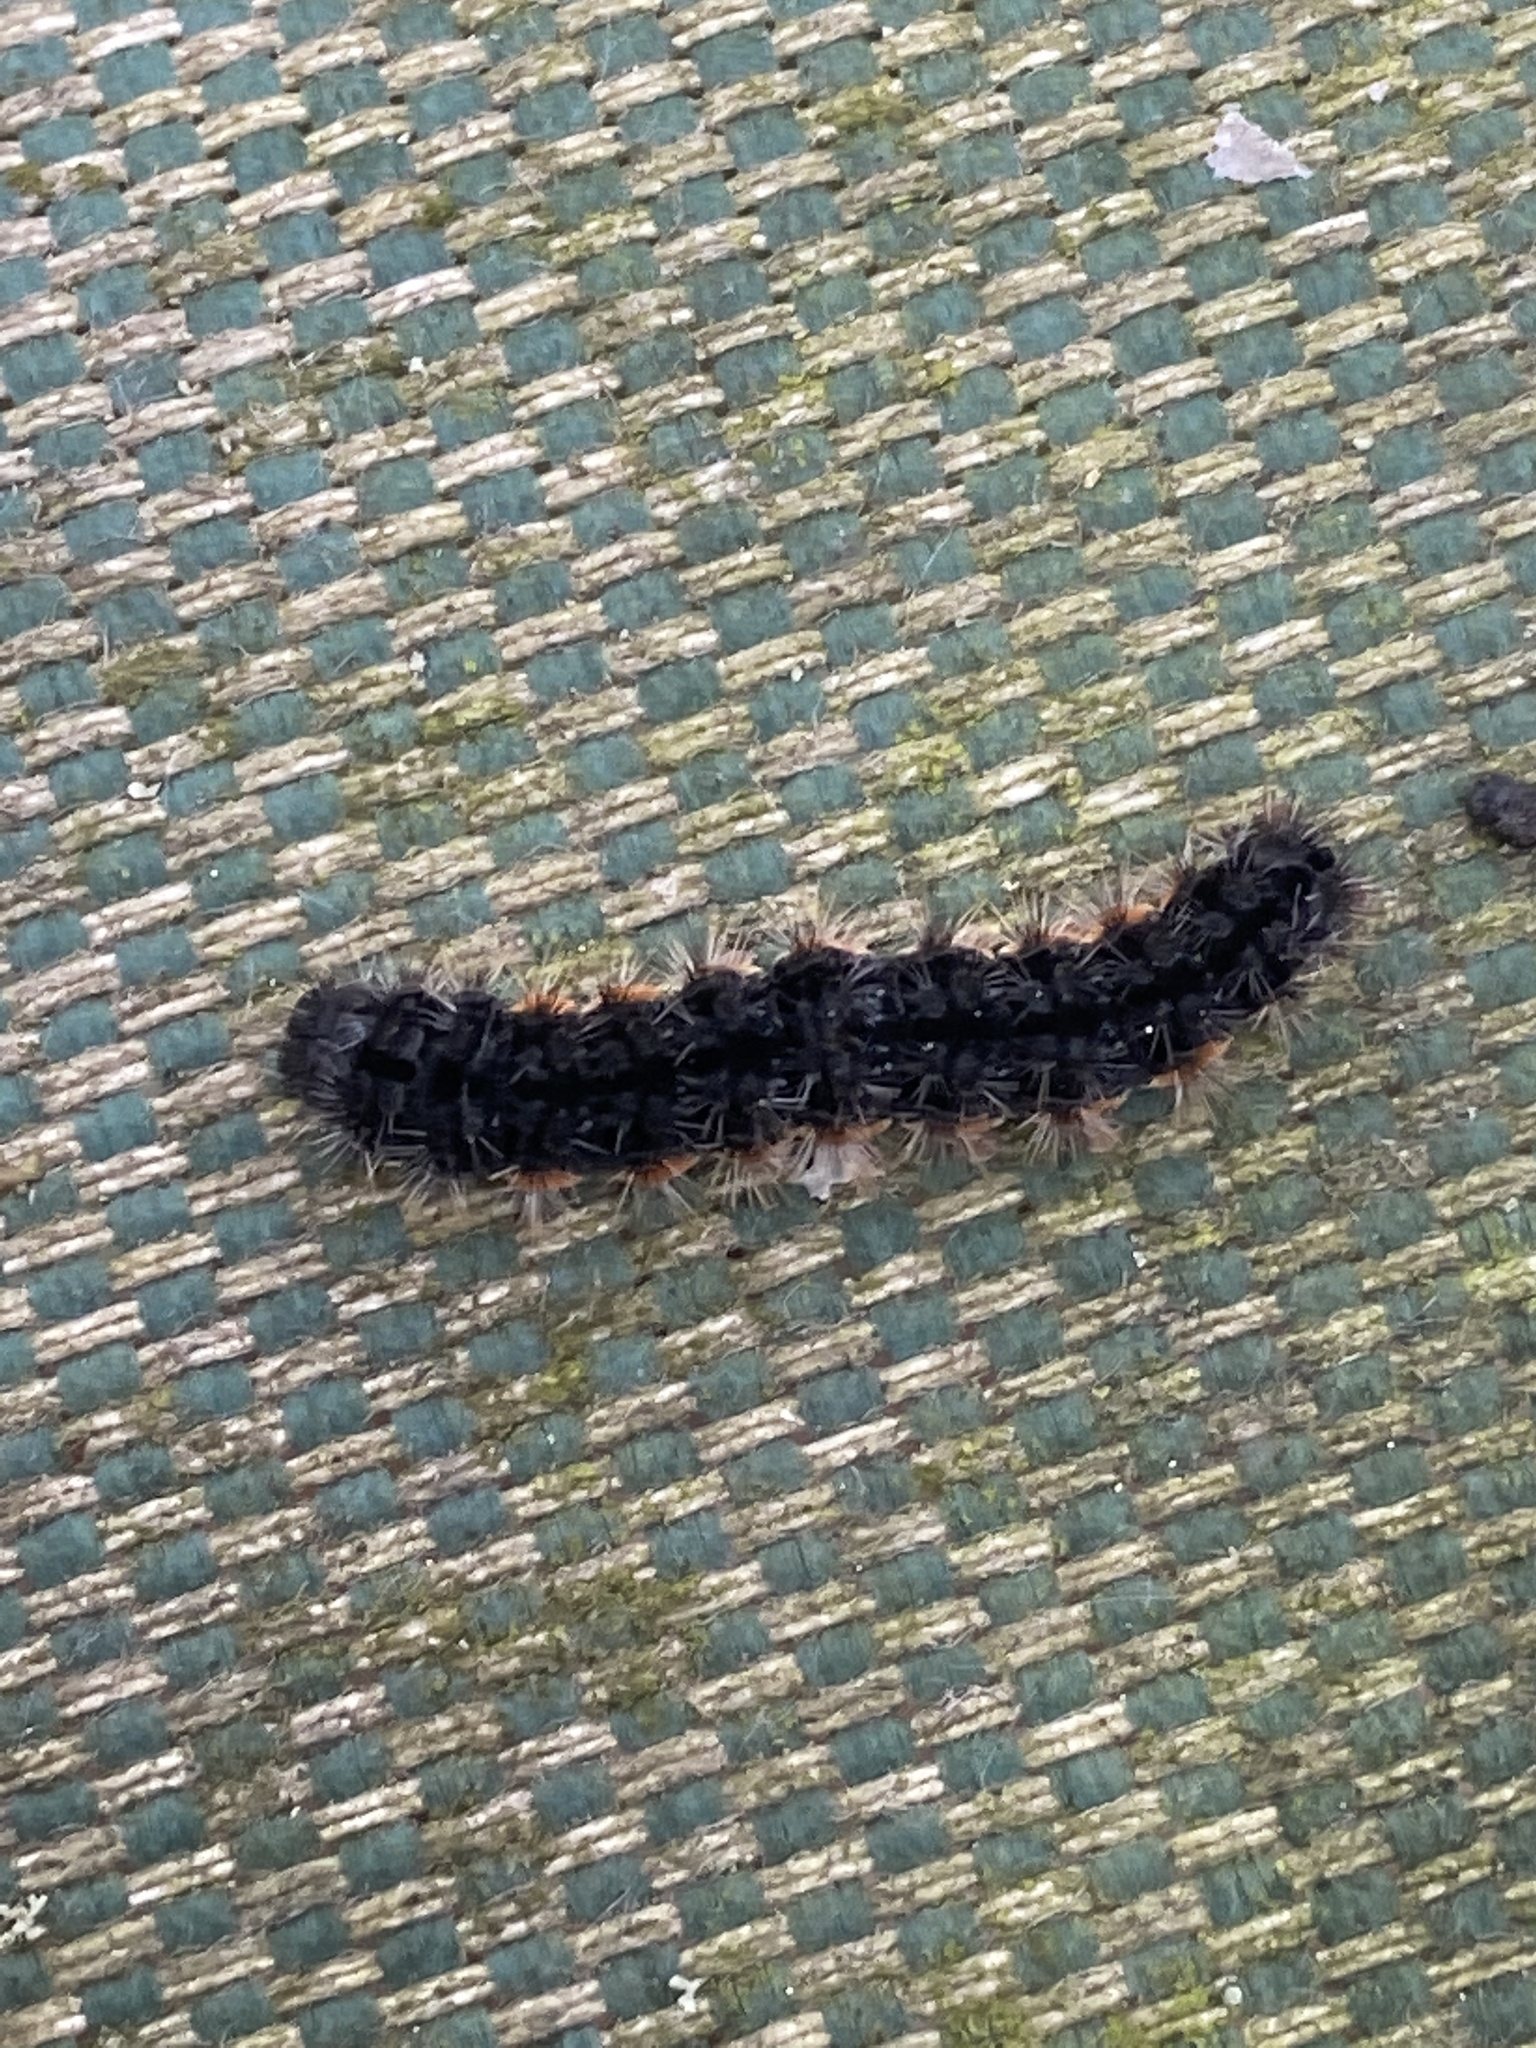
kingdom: Animalia
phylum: Arthropoda
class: Insecta
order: Lepidoptera
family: Erebidae
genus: Nyea
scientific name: Nyea lurideola
